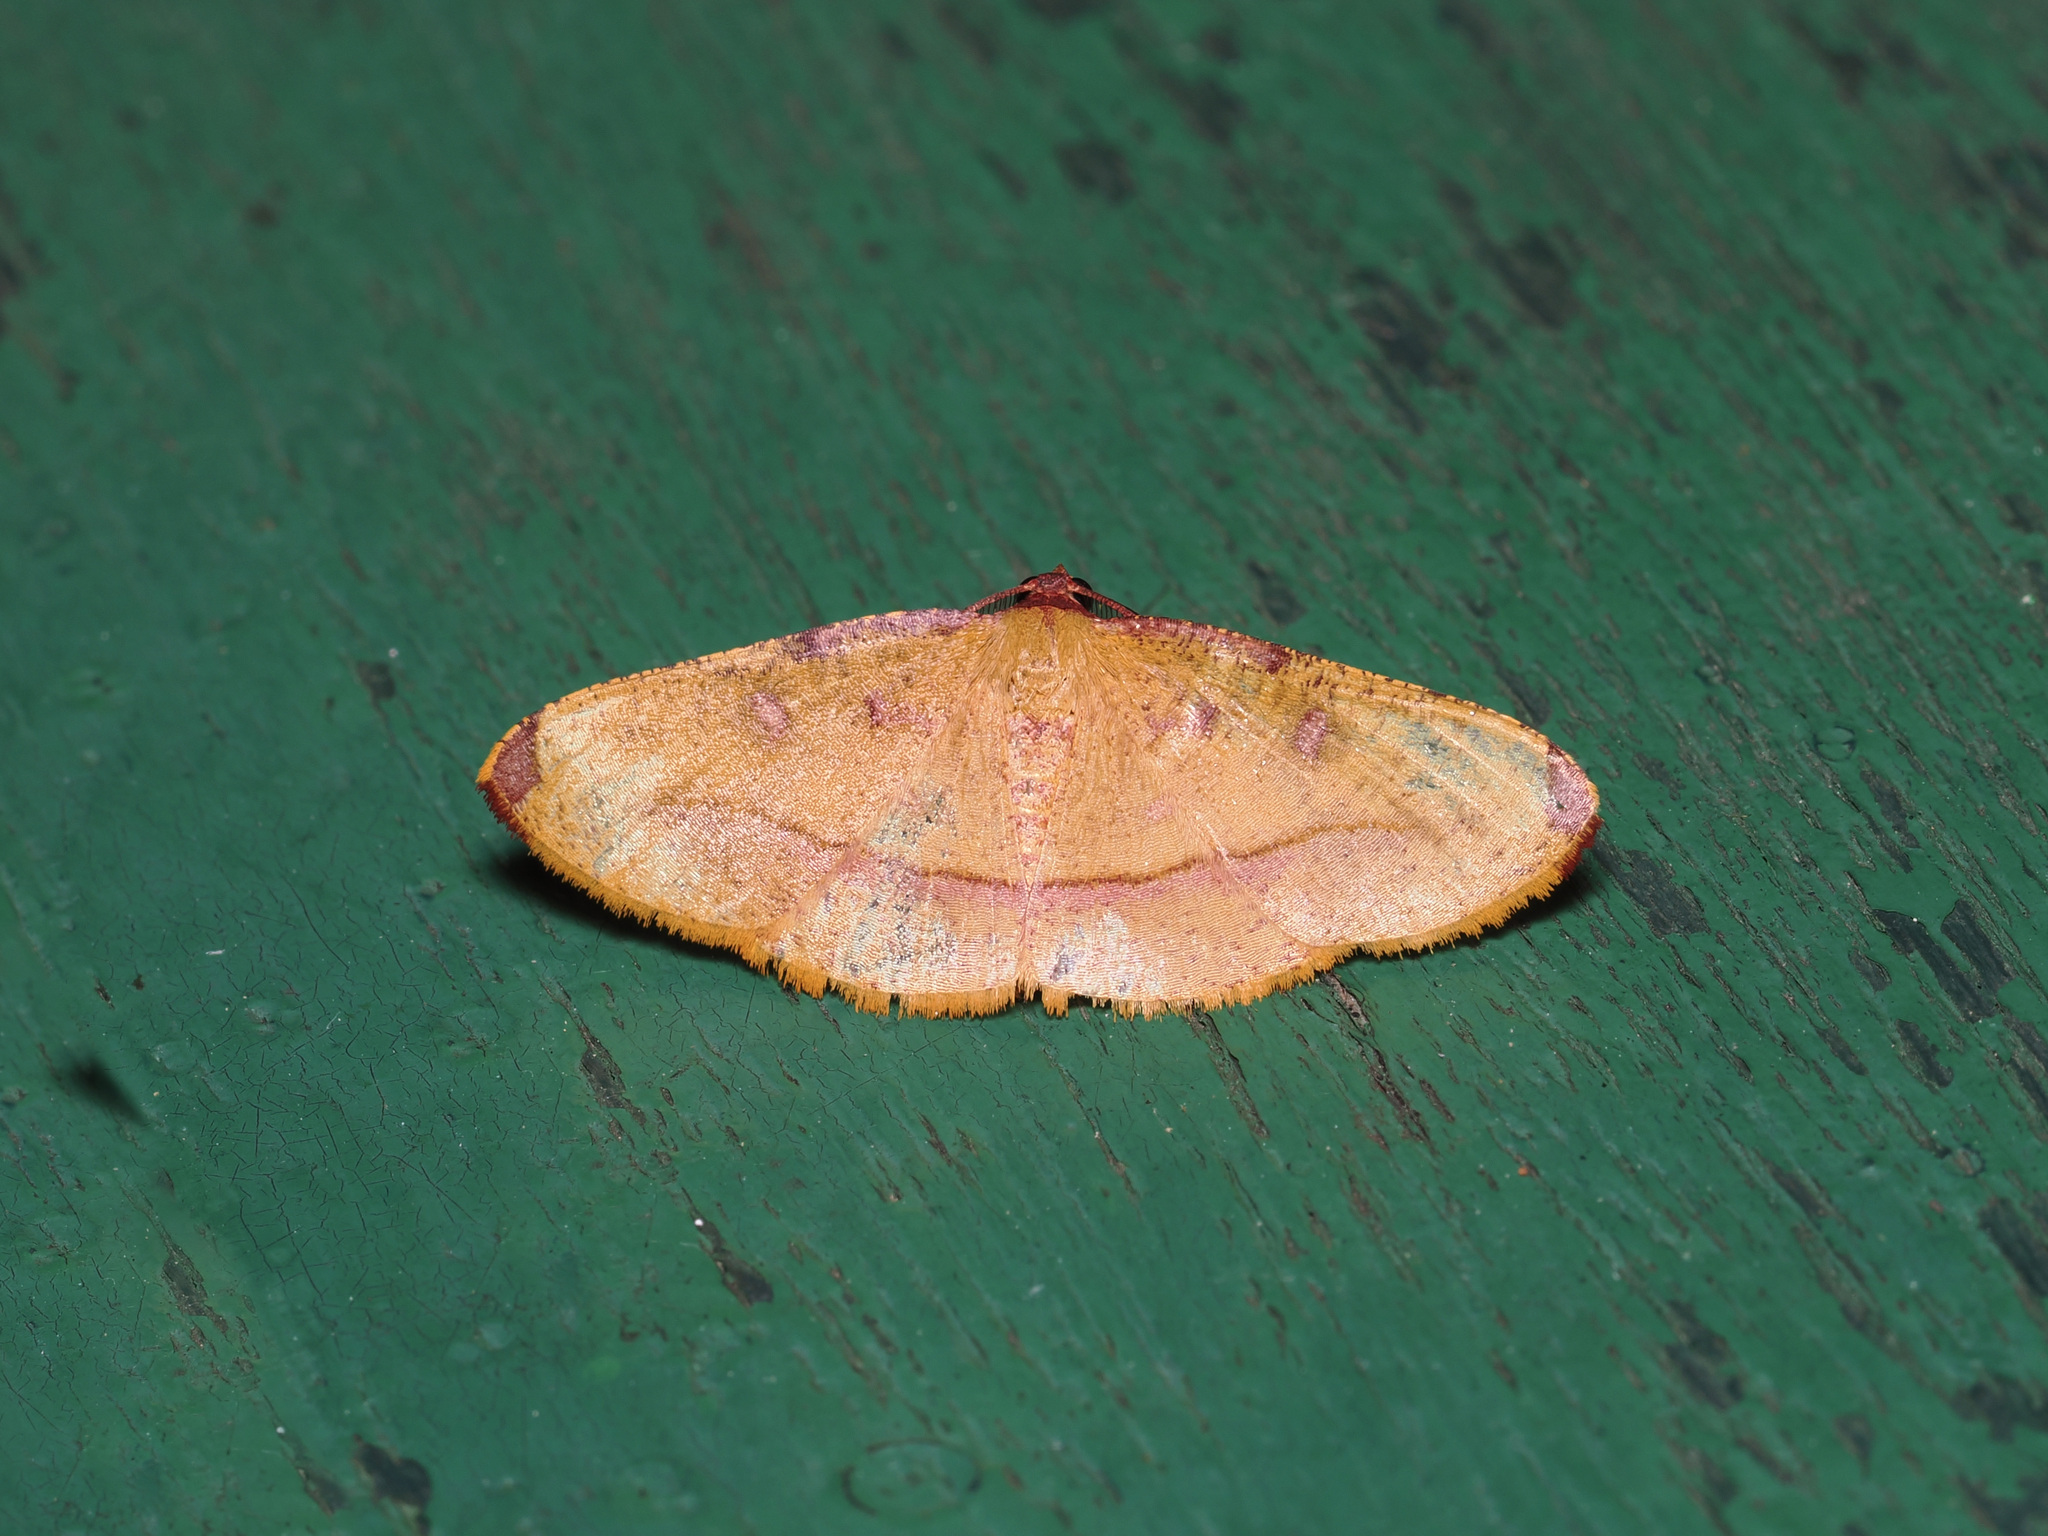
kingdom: Animalia
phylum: Arthropoda
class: Insecta
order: Lepidoptera
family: Geometridae
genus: Heterolocha
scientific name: Heterolocha pyreniata
